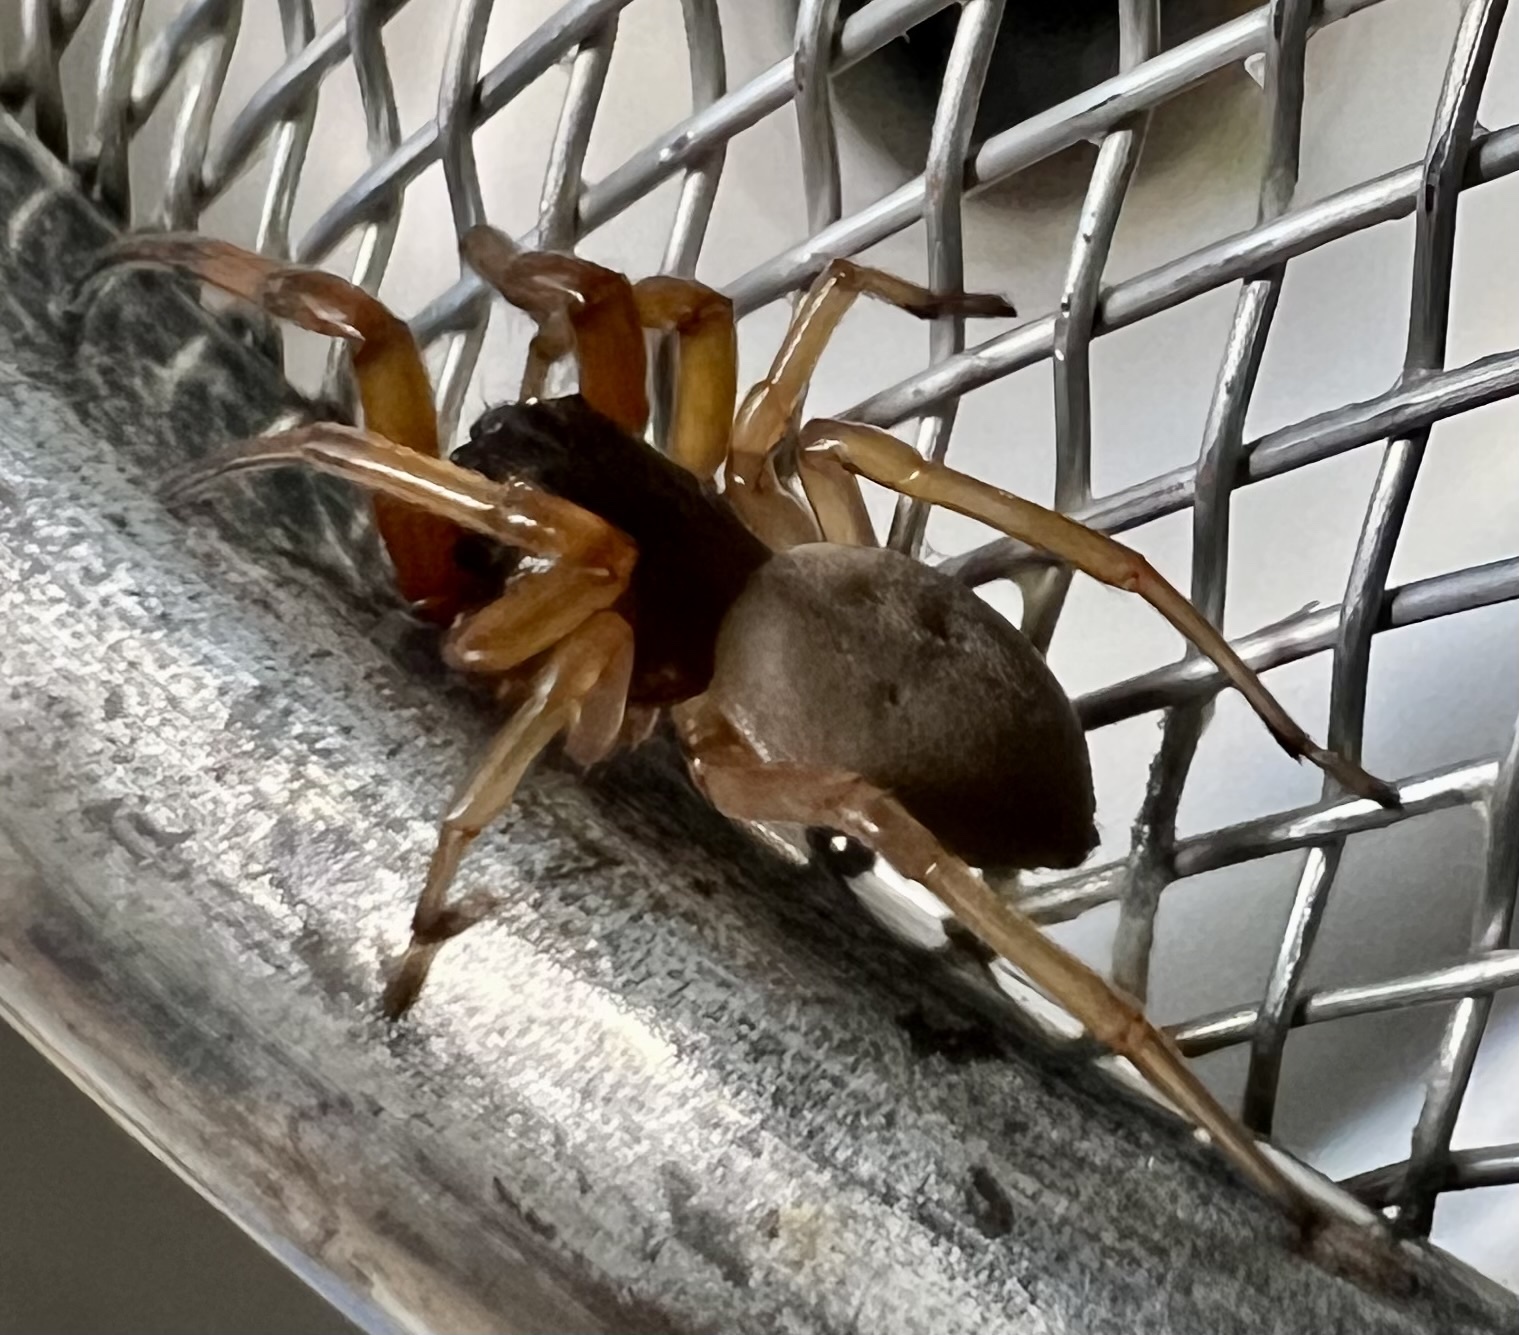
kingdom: Animalia
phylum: Arthropoda
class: Arachnida
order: Araneae
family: Trachelidae
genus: Trachelas
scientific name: Trachelas tranquillus
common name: Broad-faced sac spider
